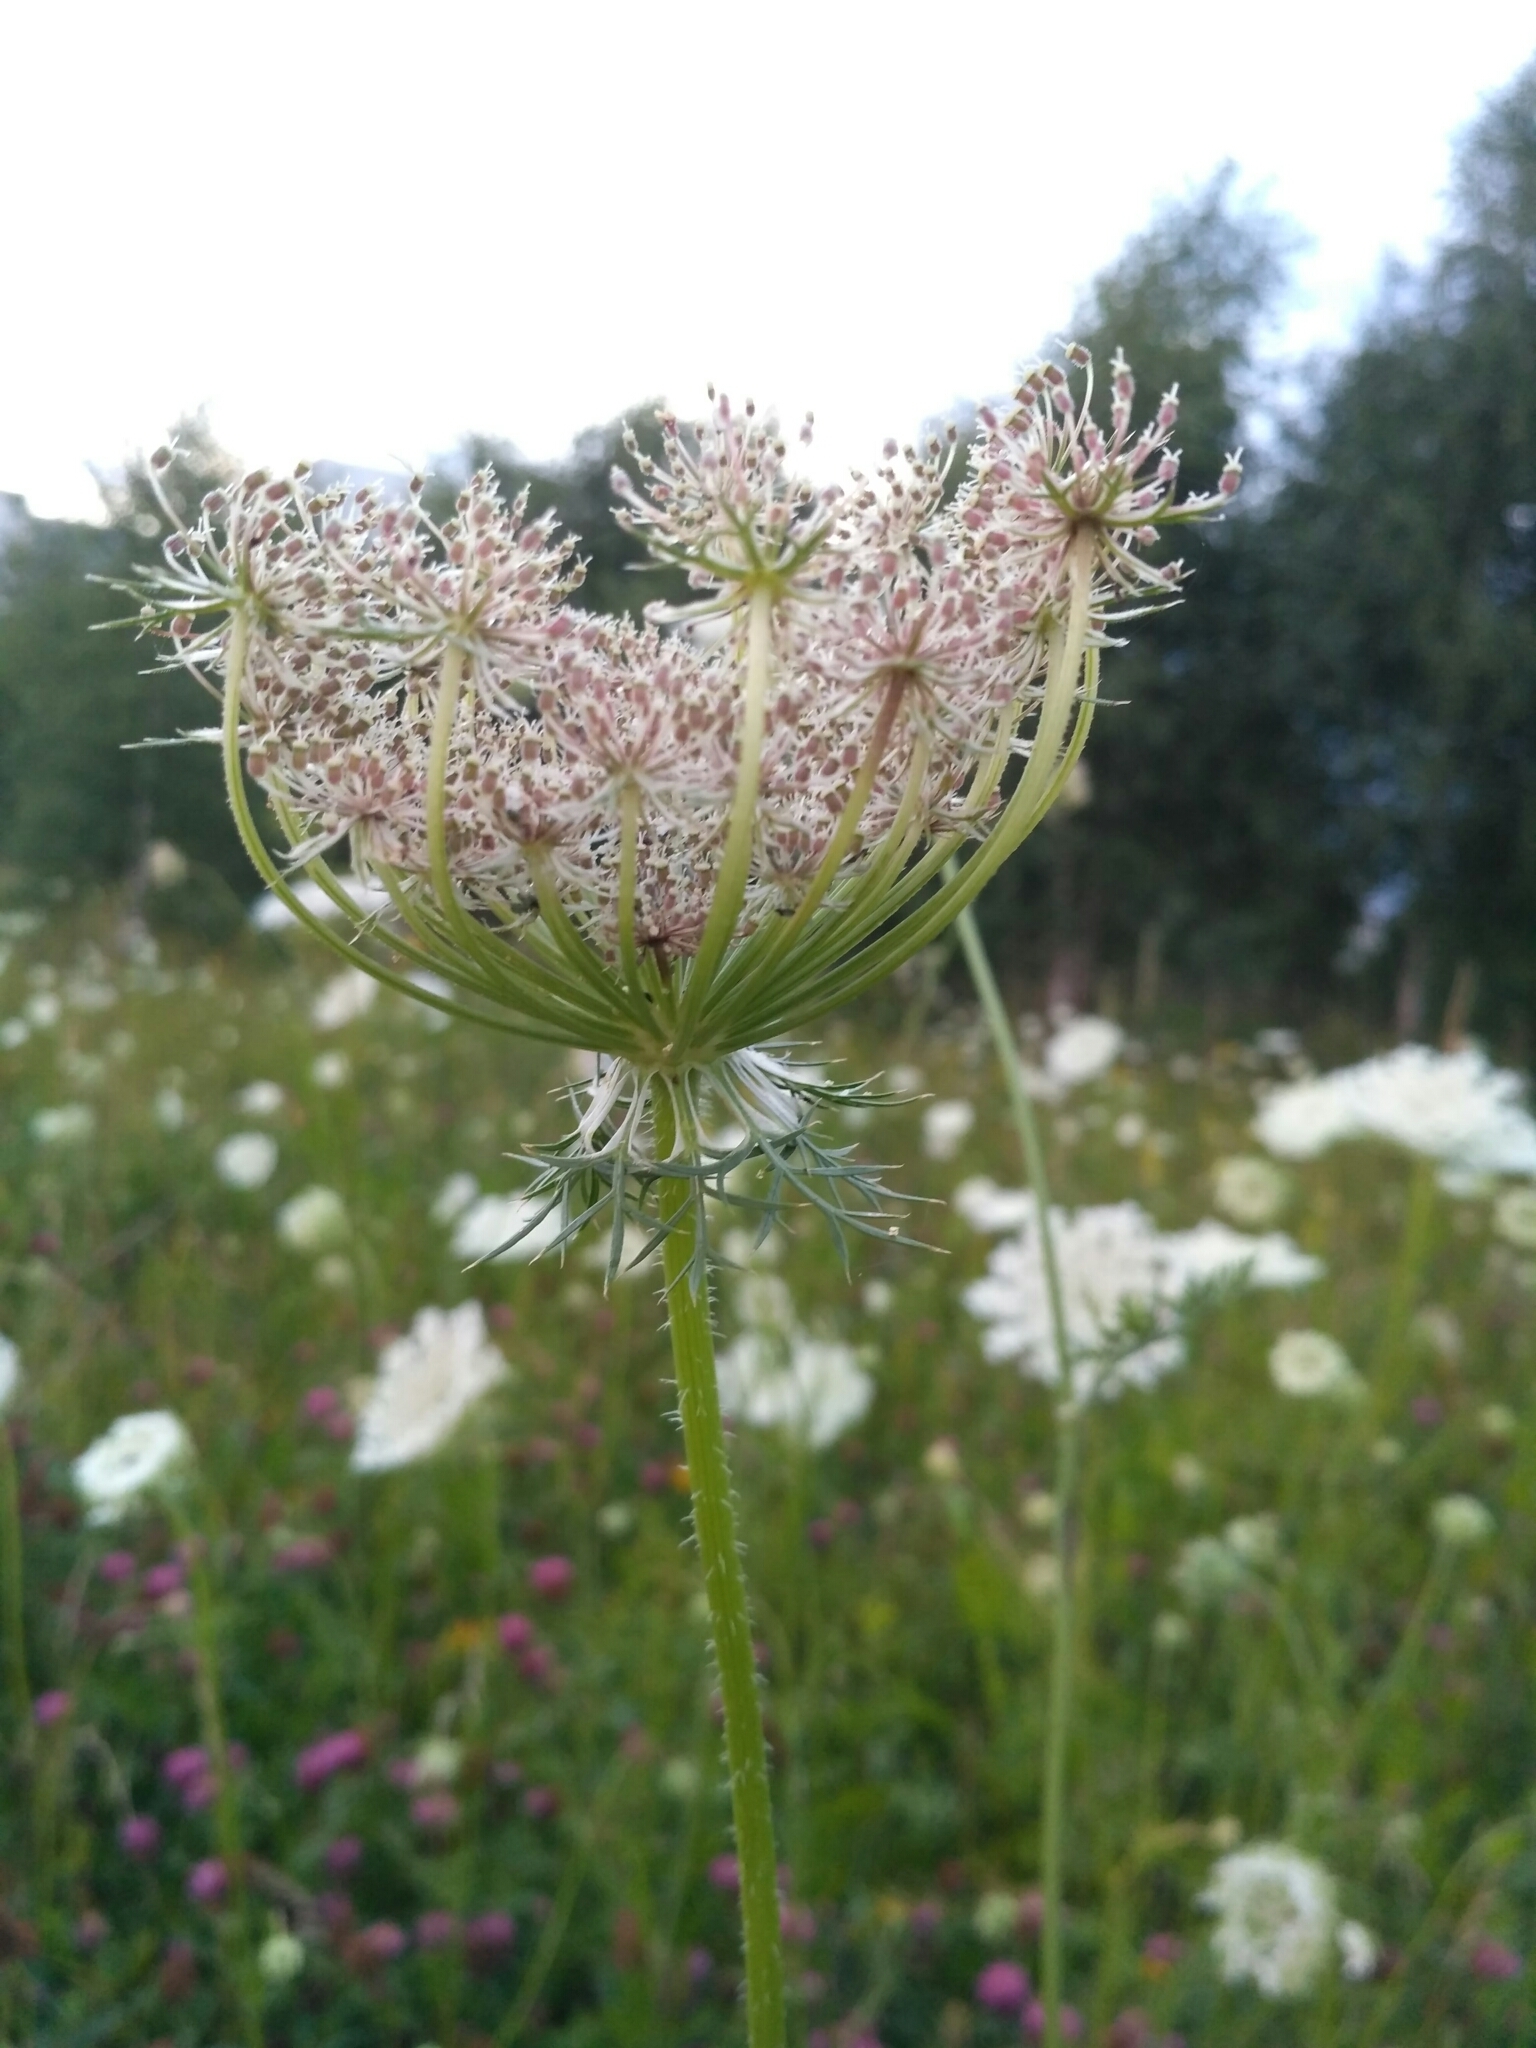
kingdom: Plantae
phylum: Tracheophyta
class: Magnoliopsida
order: Apiales
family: Apiaceae
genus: Daucus
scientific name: Daucus carota
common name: Wild carrot
